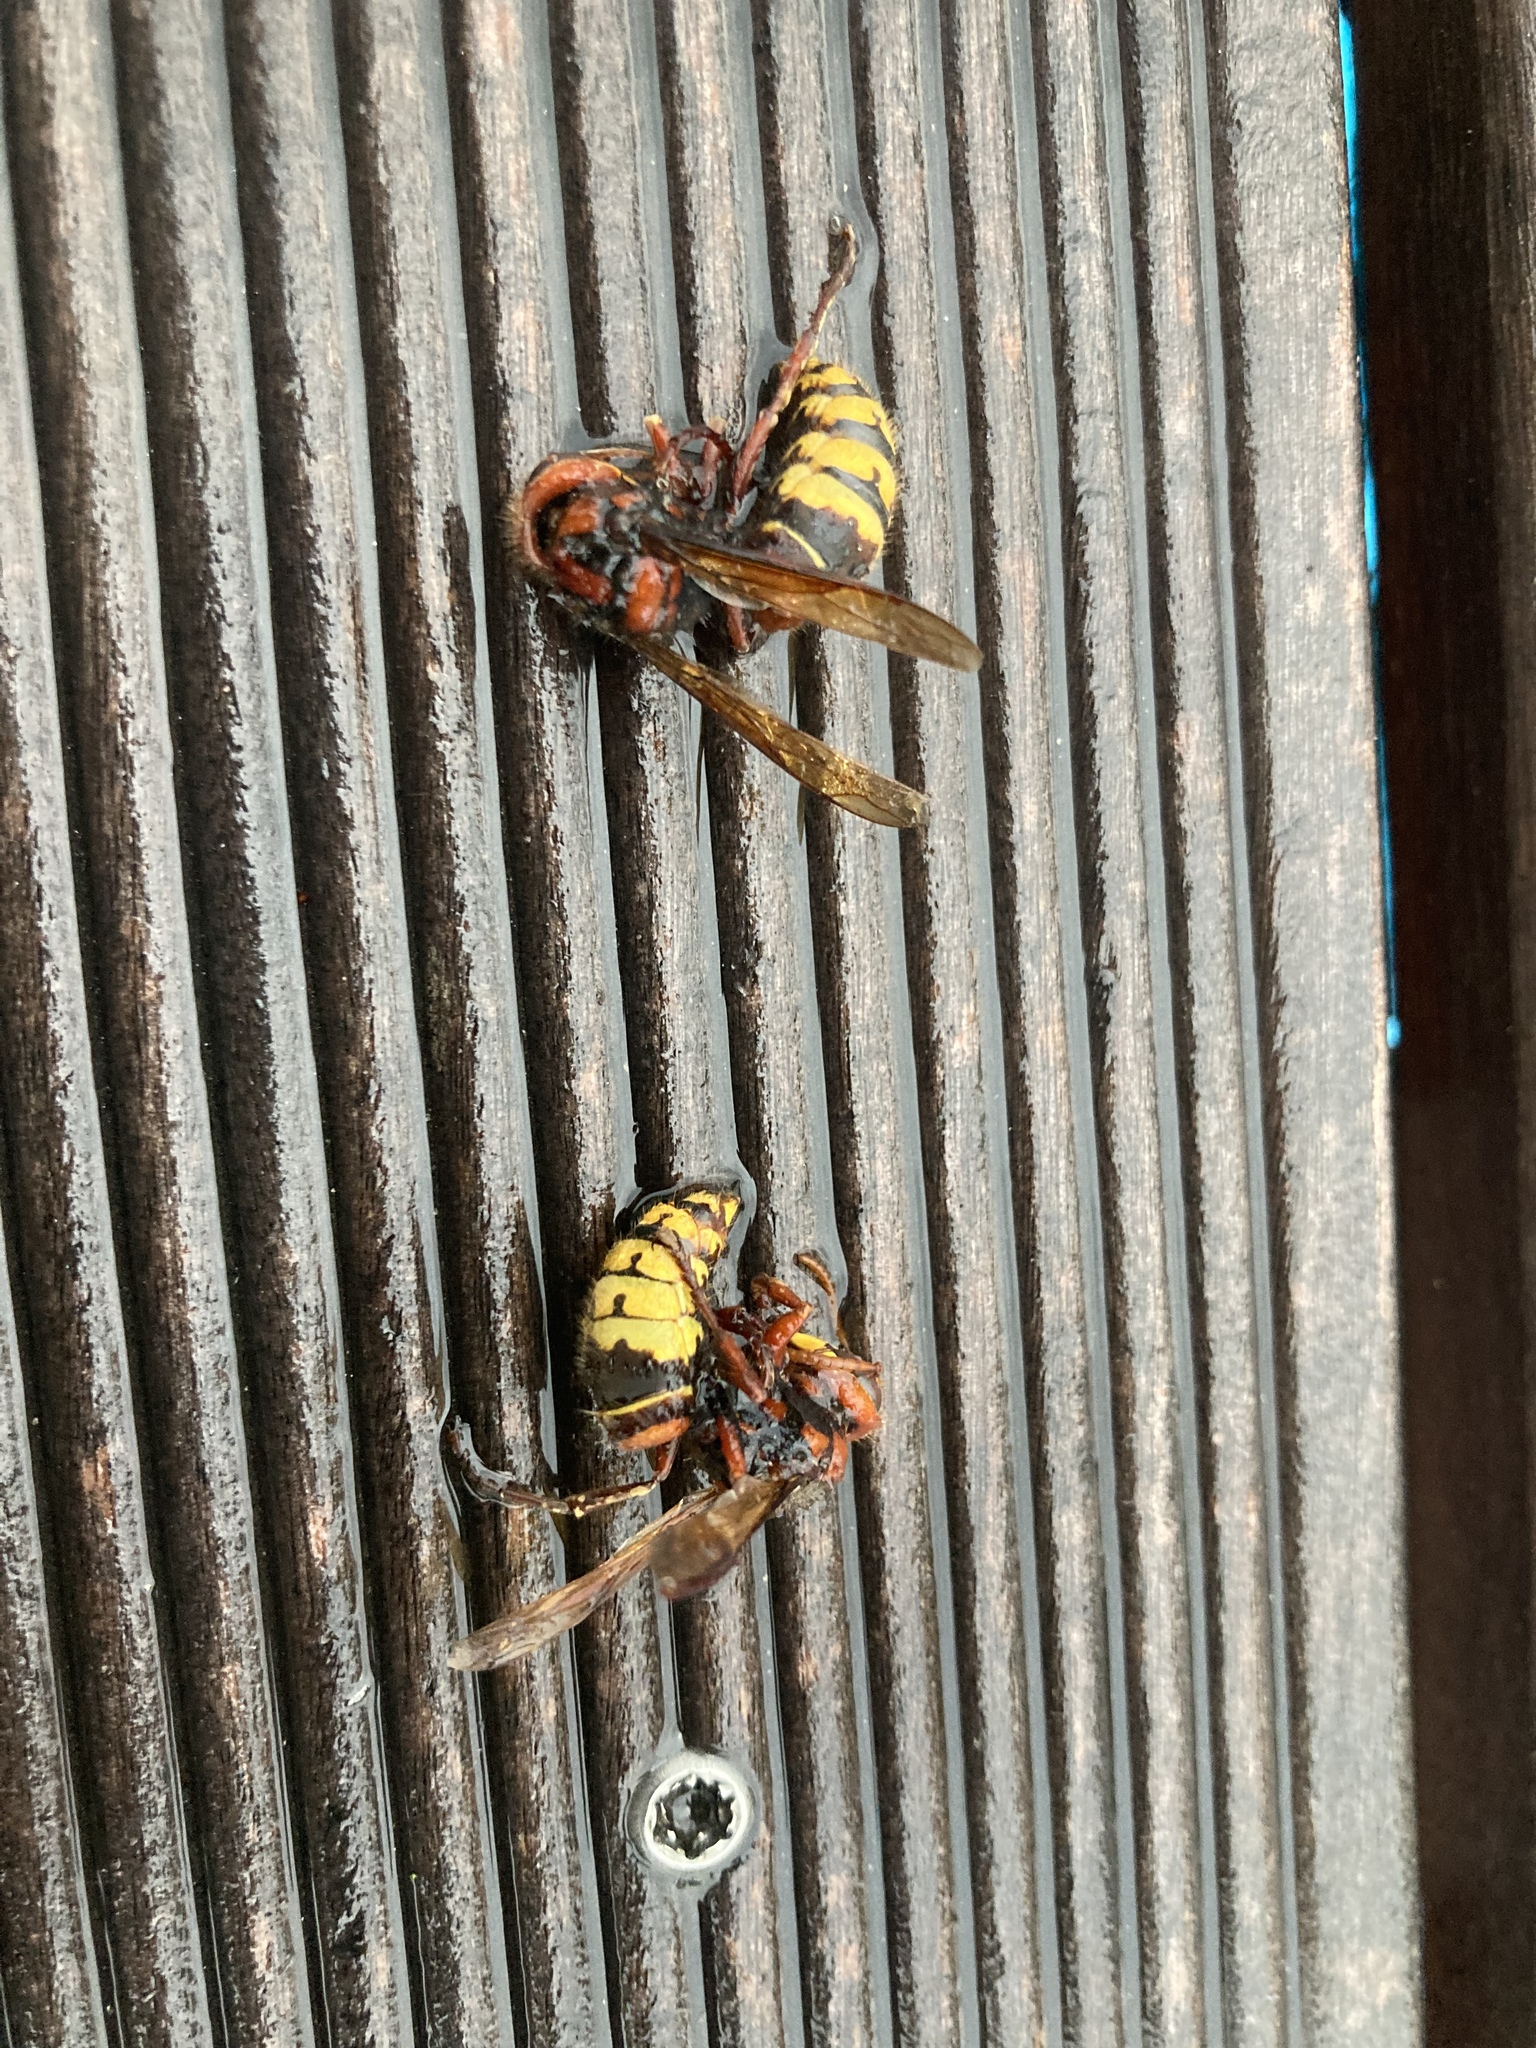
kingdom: Animalia
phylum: Arthropoda
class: Insecta
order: Hymenoptera
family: Vespidae
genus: Vespa
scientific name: Vespa crabro
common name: Hornet
